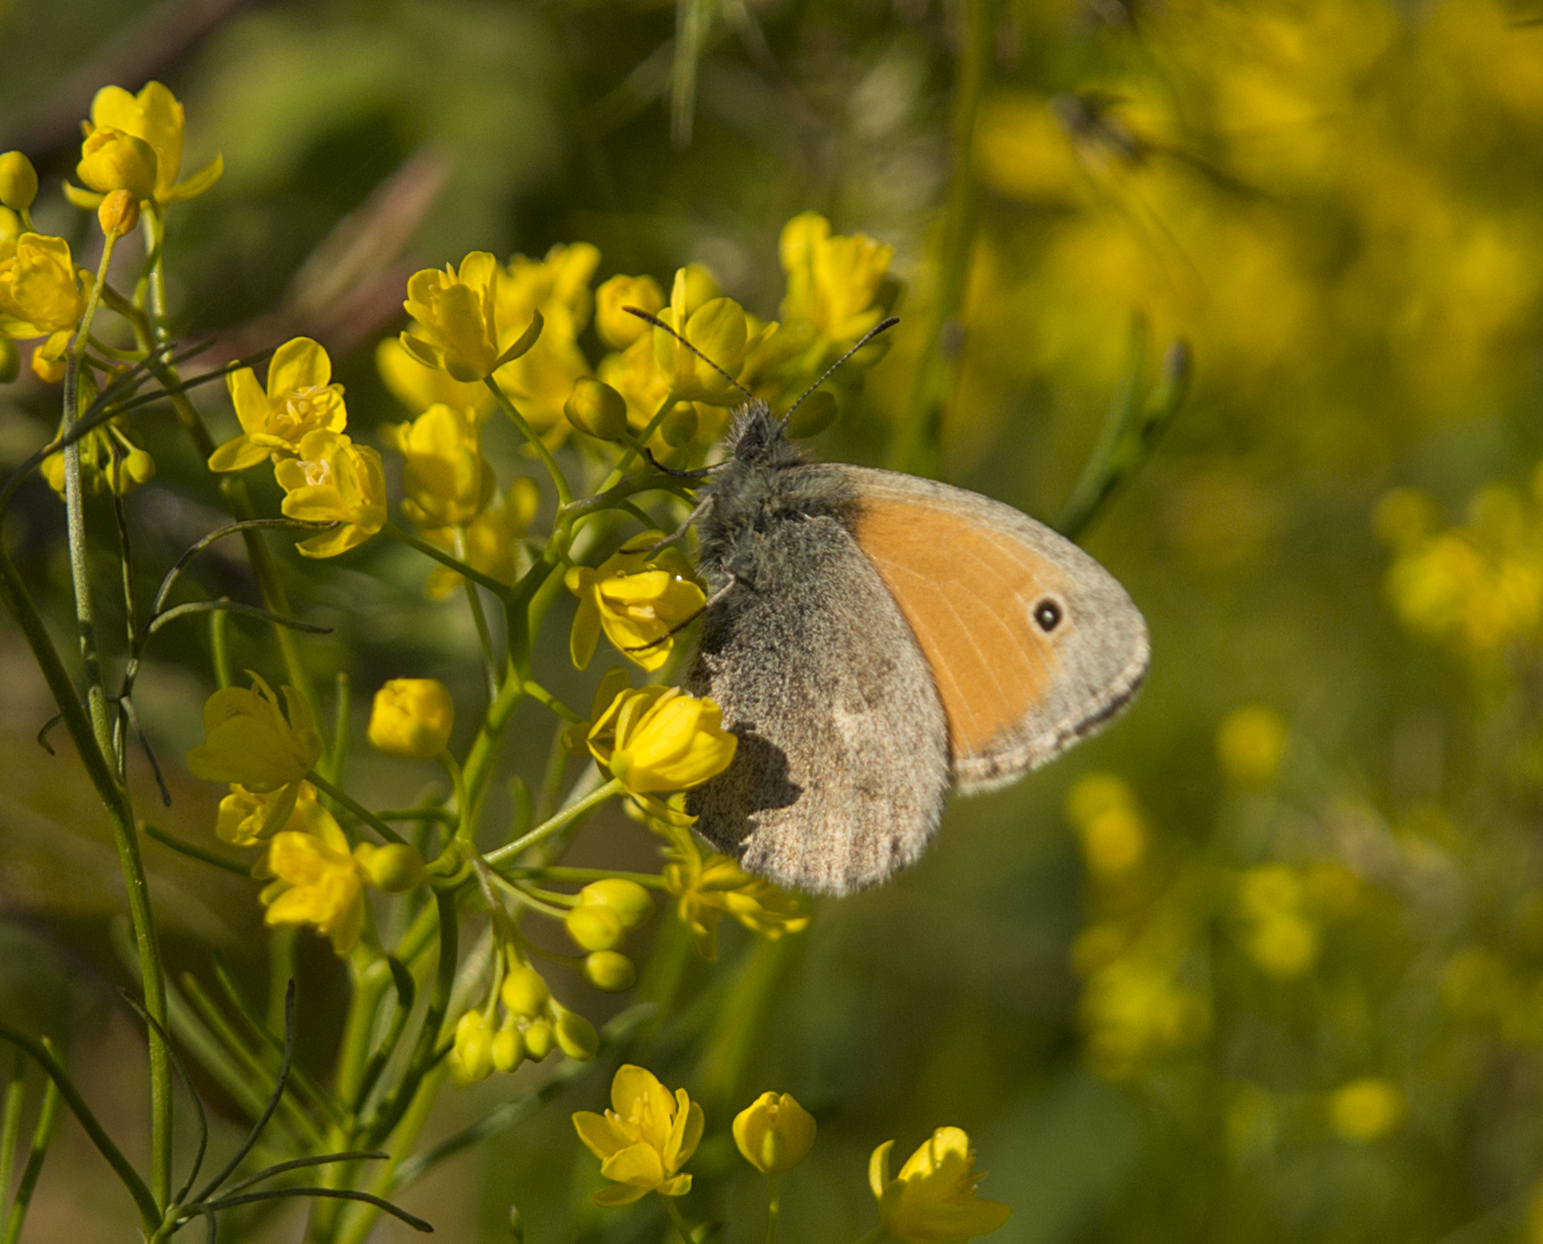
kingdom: Animalia
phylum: Arthropoda
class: Insecta
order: Lepidoptera
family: Nymphalidae
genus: Coenonympha
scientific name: Coenonympha pamphilus
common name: Small heath
